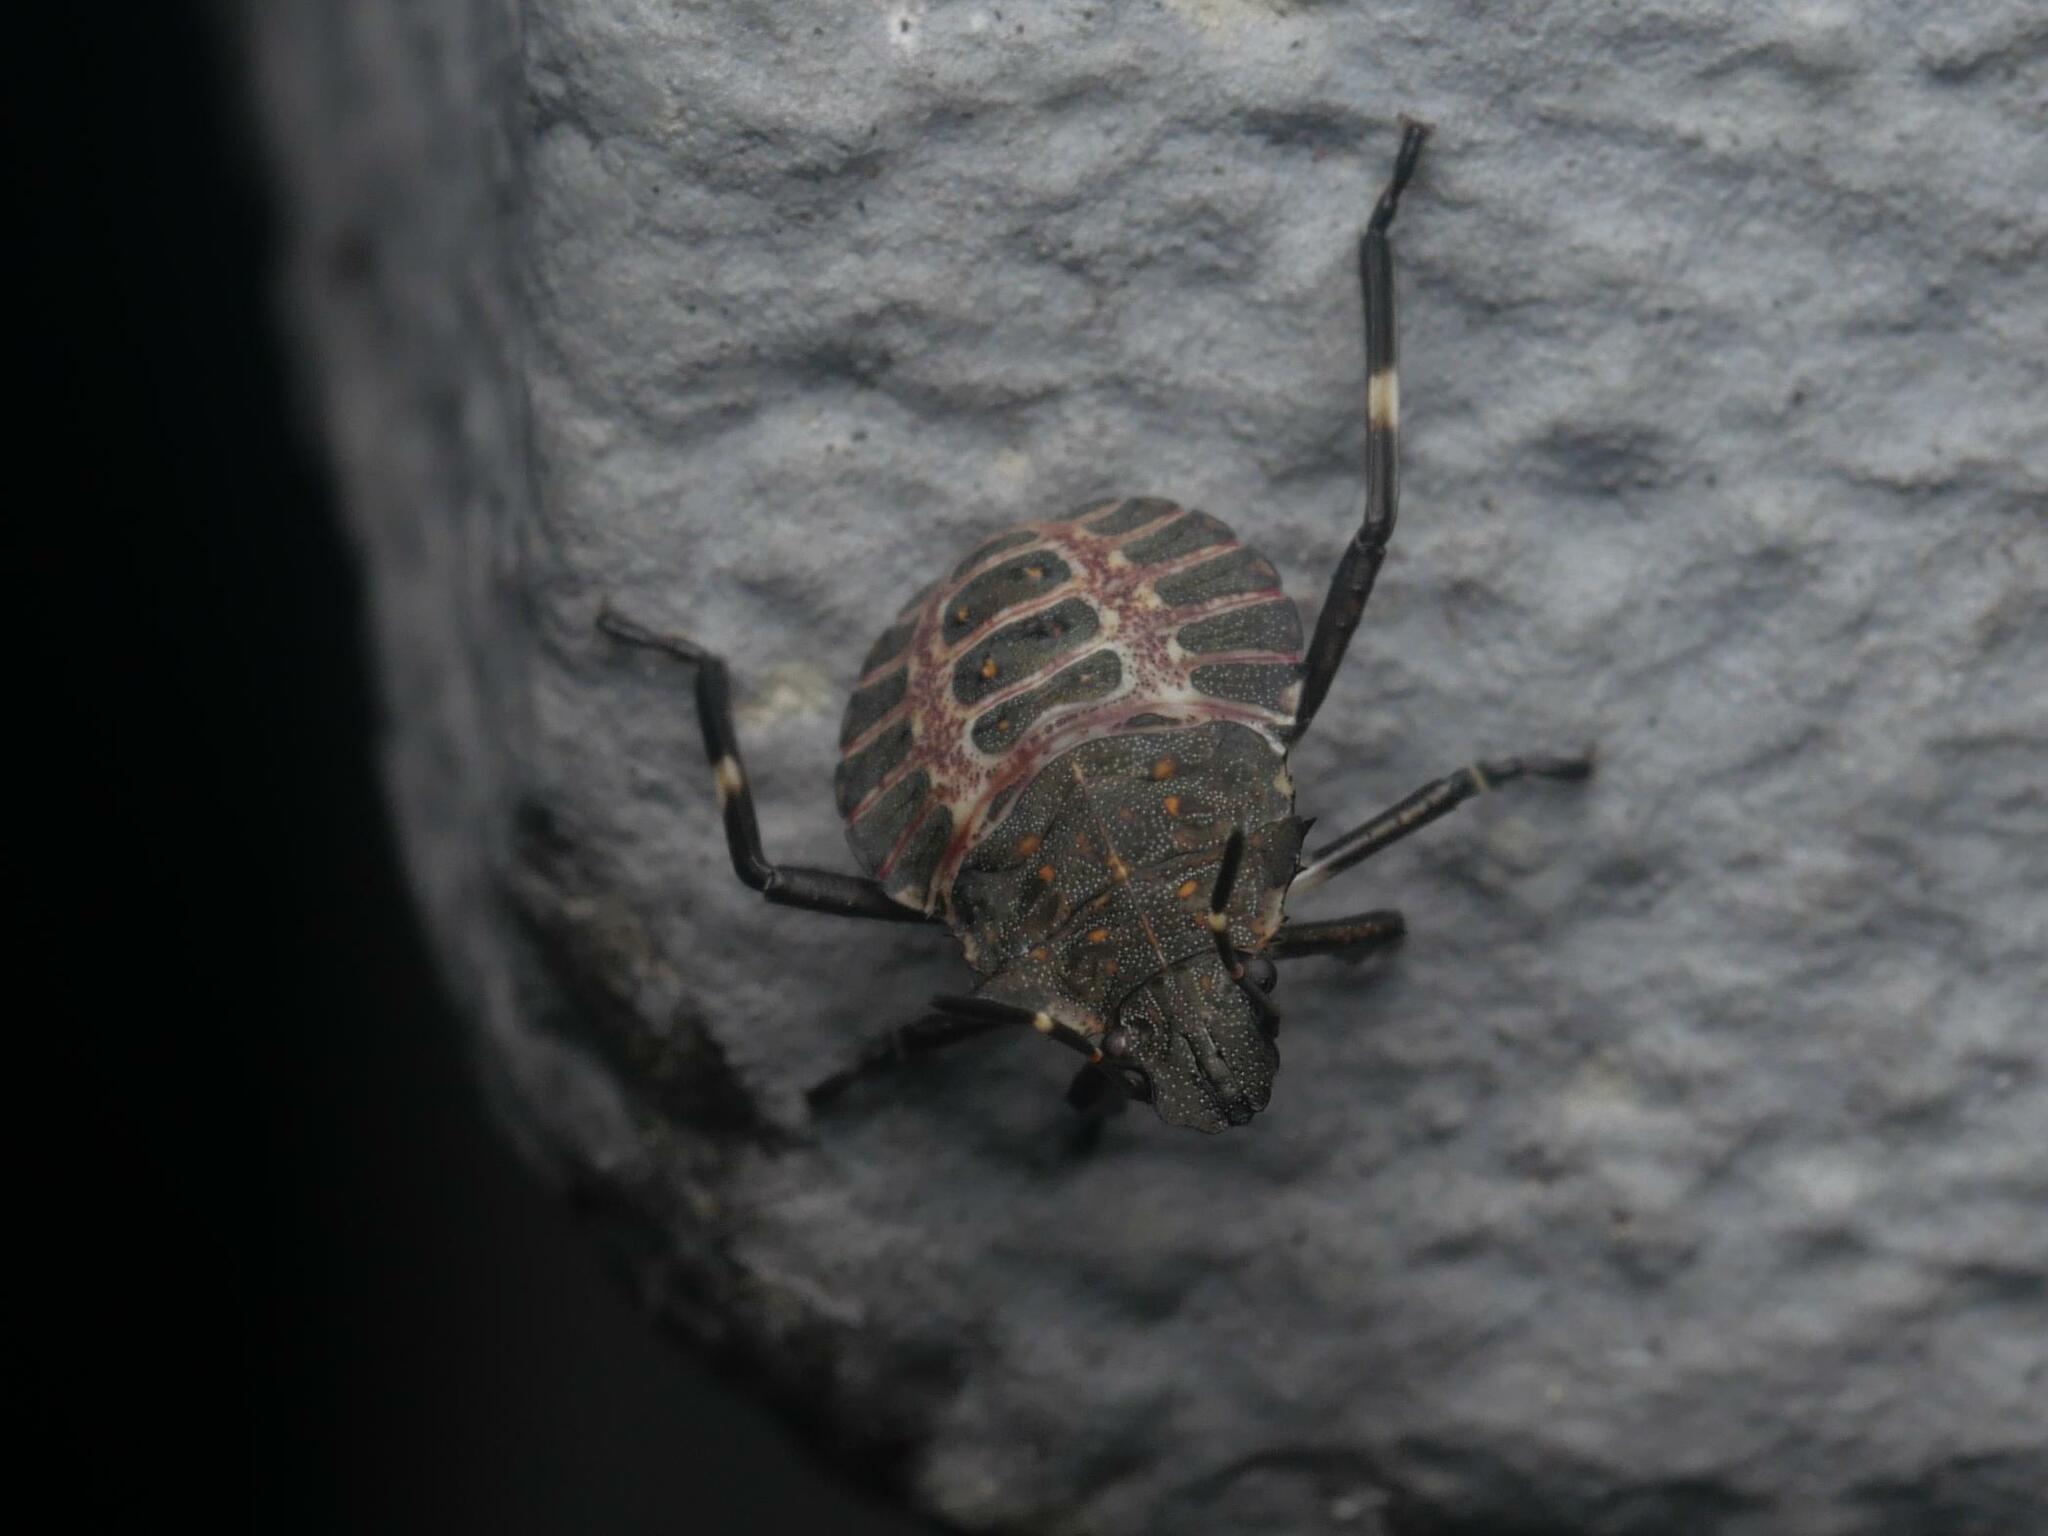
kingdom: Animalia
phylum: Arthropoda
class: Insecta
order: Hemiptera
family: Pentatomidae
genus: Halyomorpha
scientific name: Halyomorpha halys
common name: Brown marmorated stink bug
